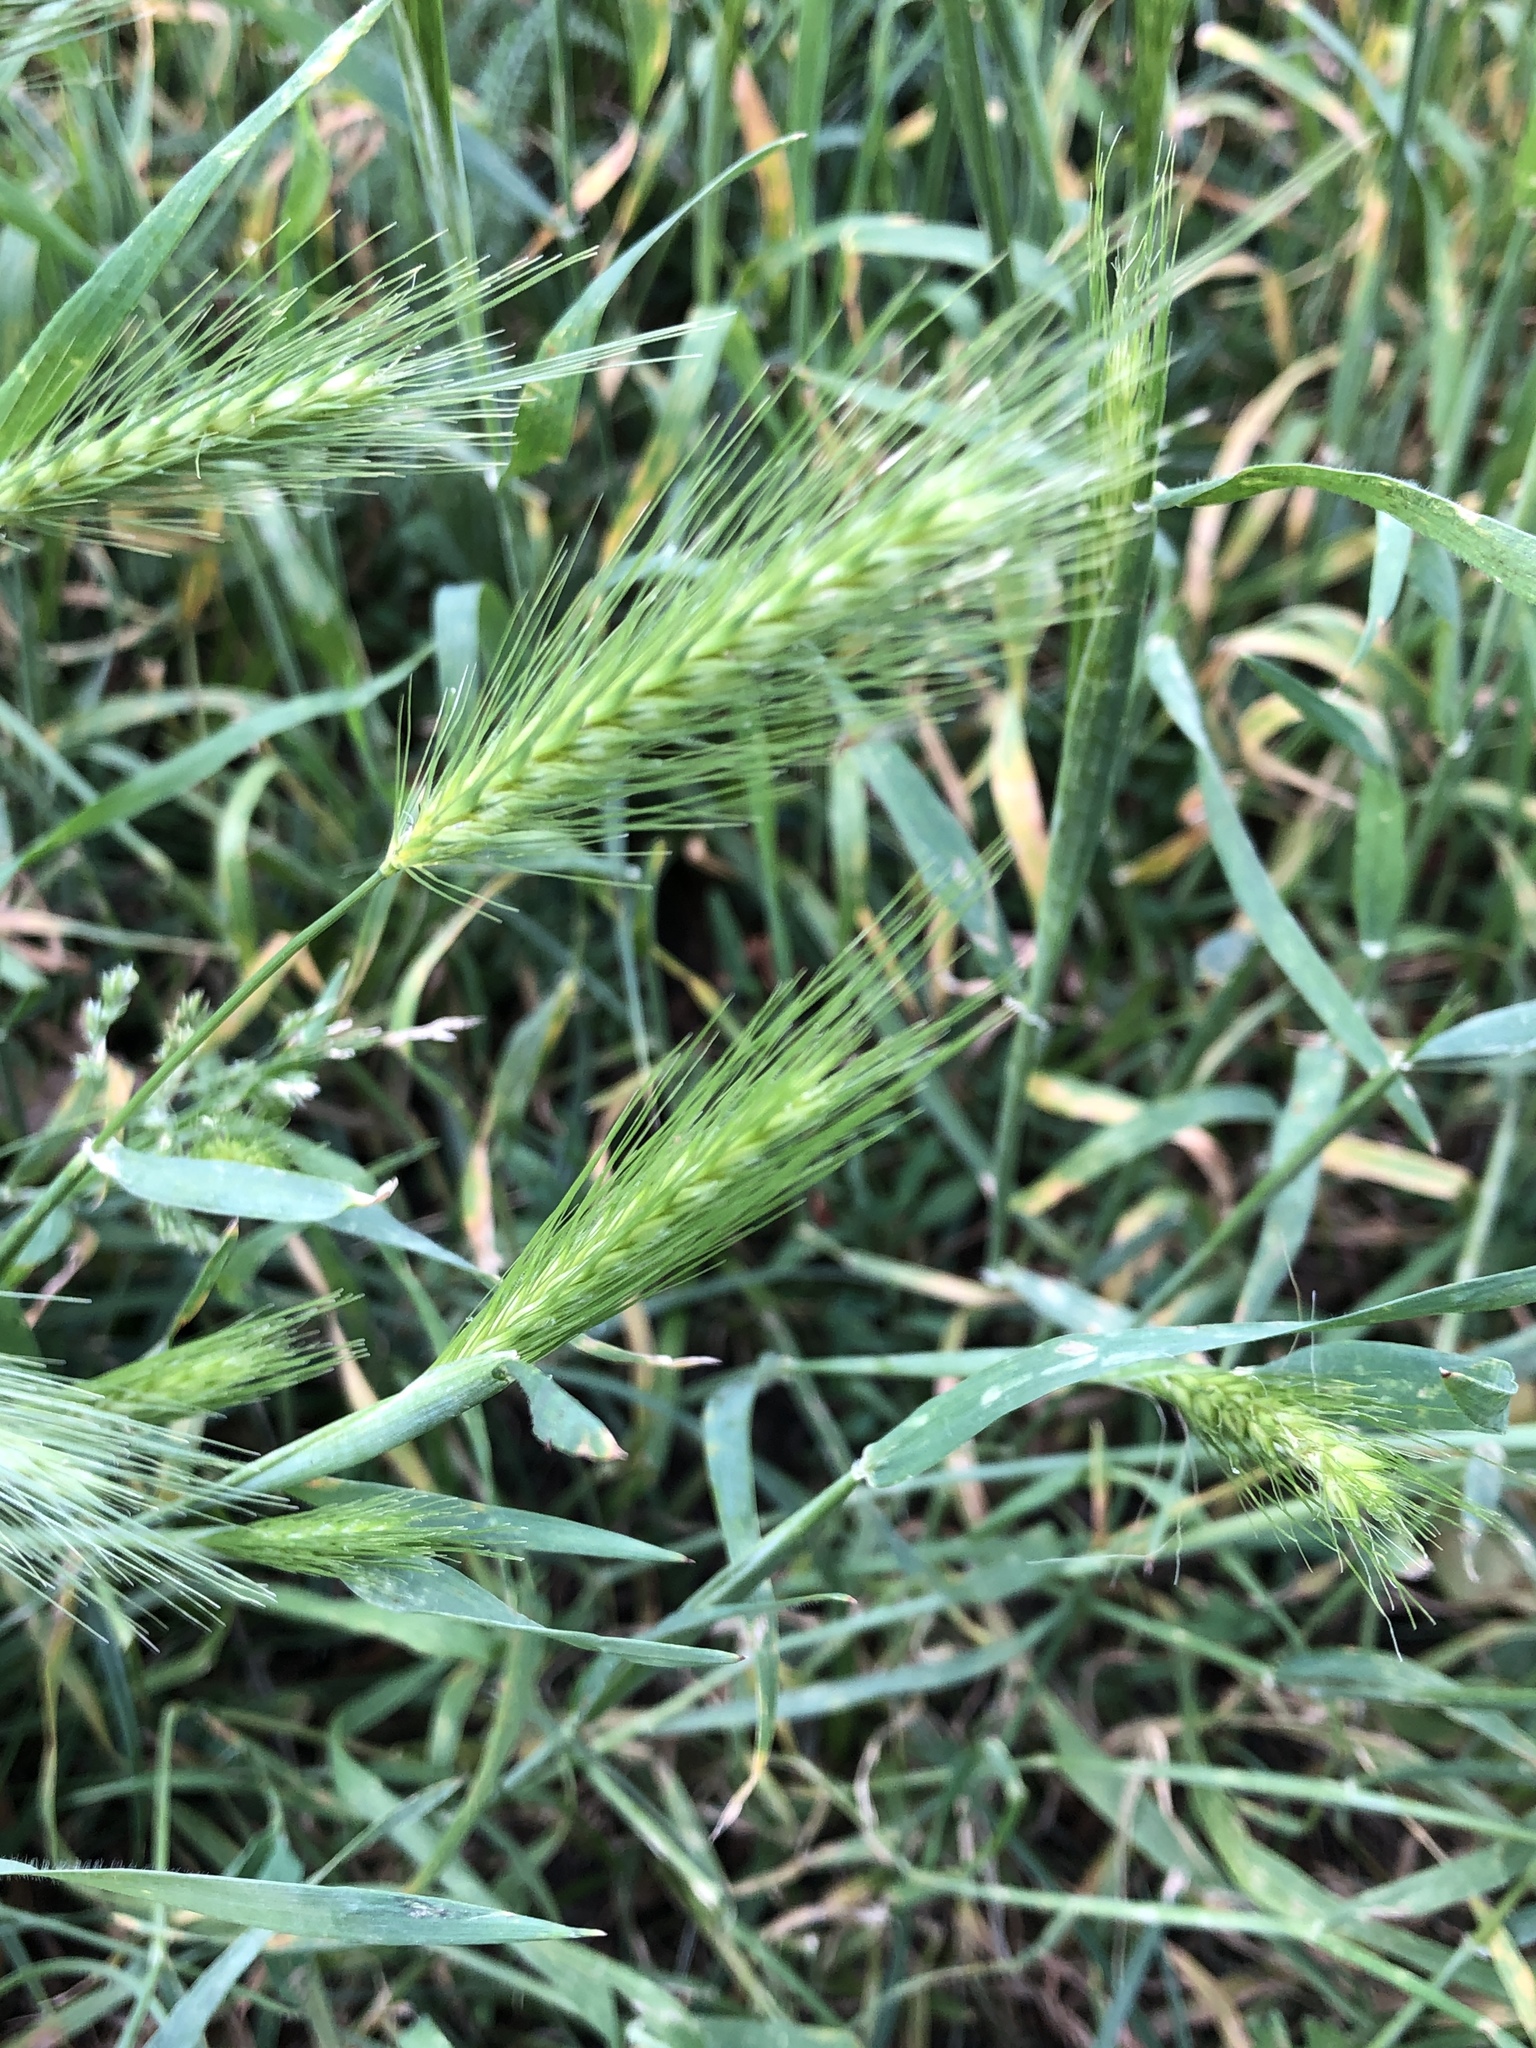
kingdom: Plantae
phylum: Tracheophyta
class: Liliopsida
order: Poales
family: Poaceae
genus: Hordeum
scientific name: Hordeum murinum
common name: Wall barley
